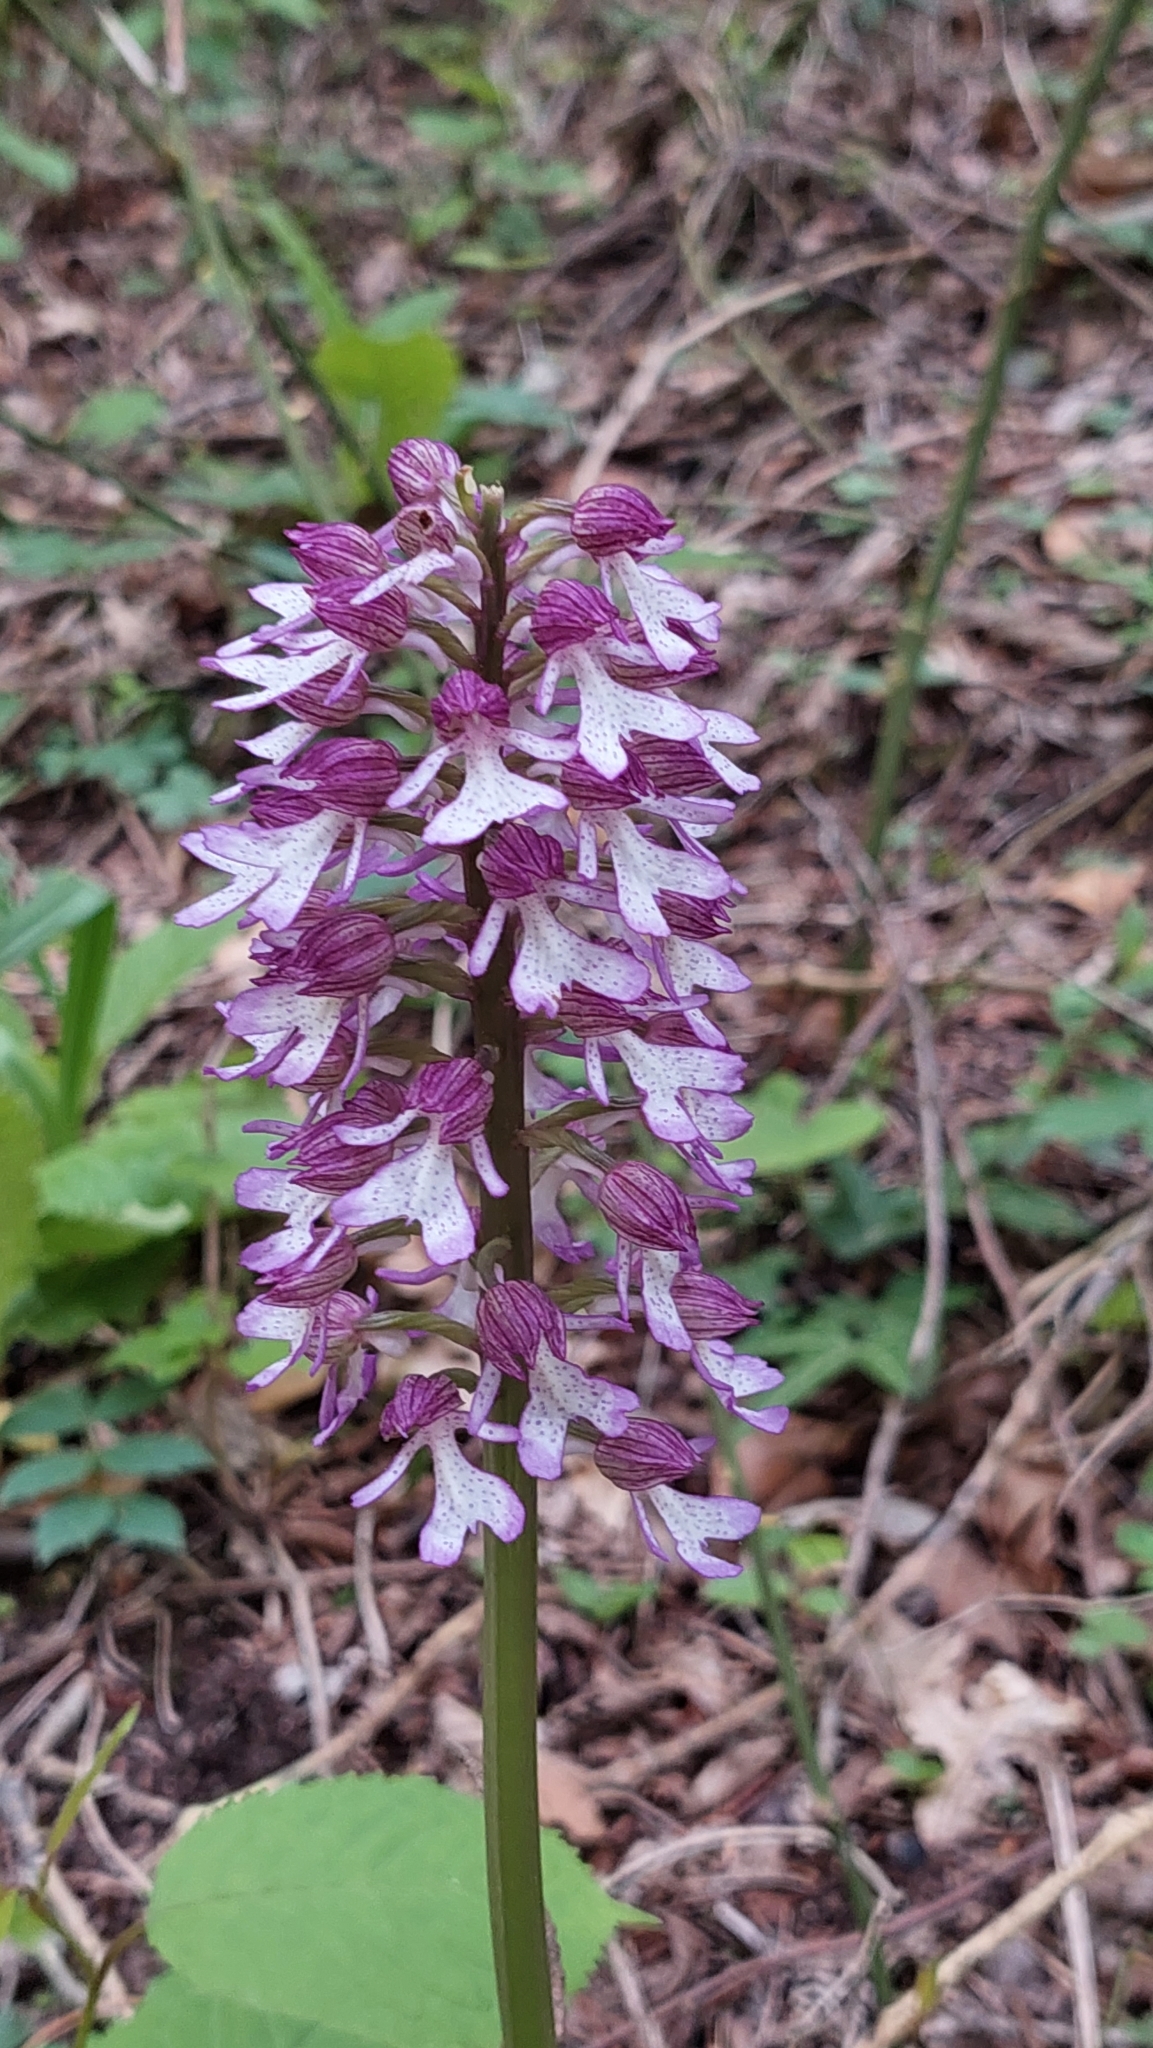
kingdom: Plantae
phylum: Tracheophyta
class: Liliopsida
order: Asparagales
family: Orchidaceae
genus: Orchis
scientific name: Orchis purpurea
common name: Lady orchid
